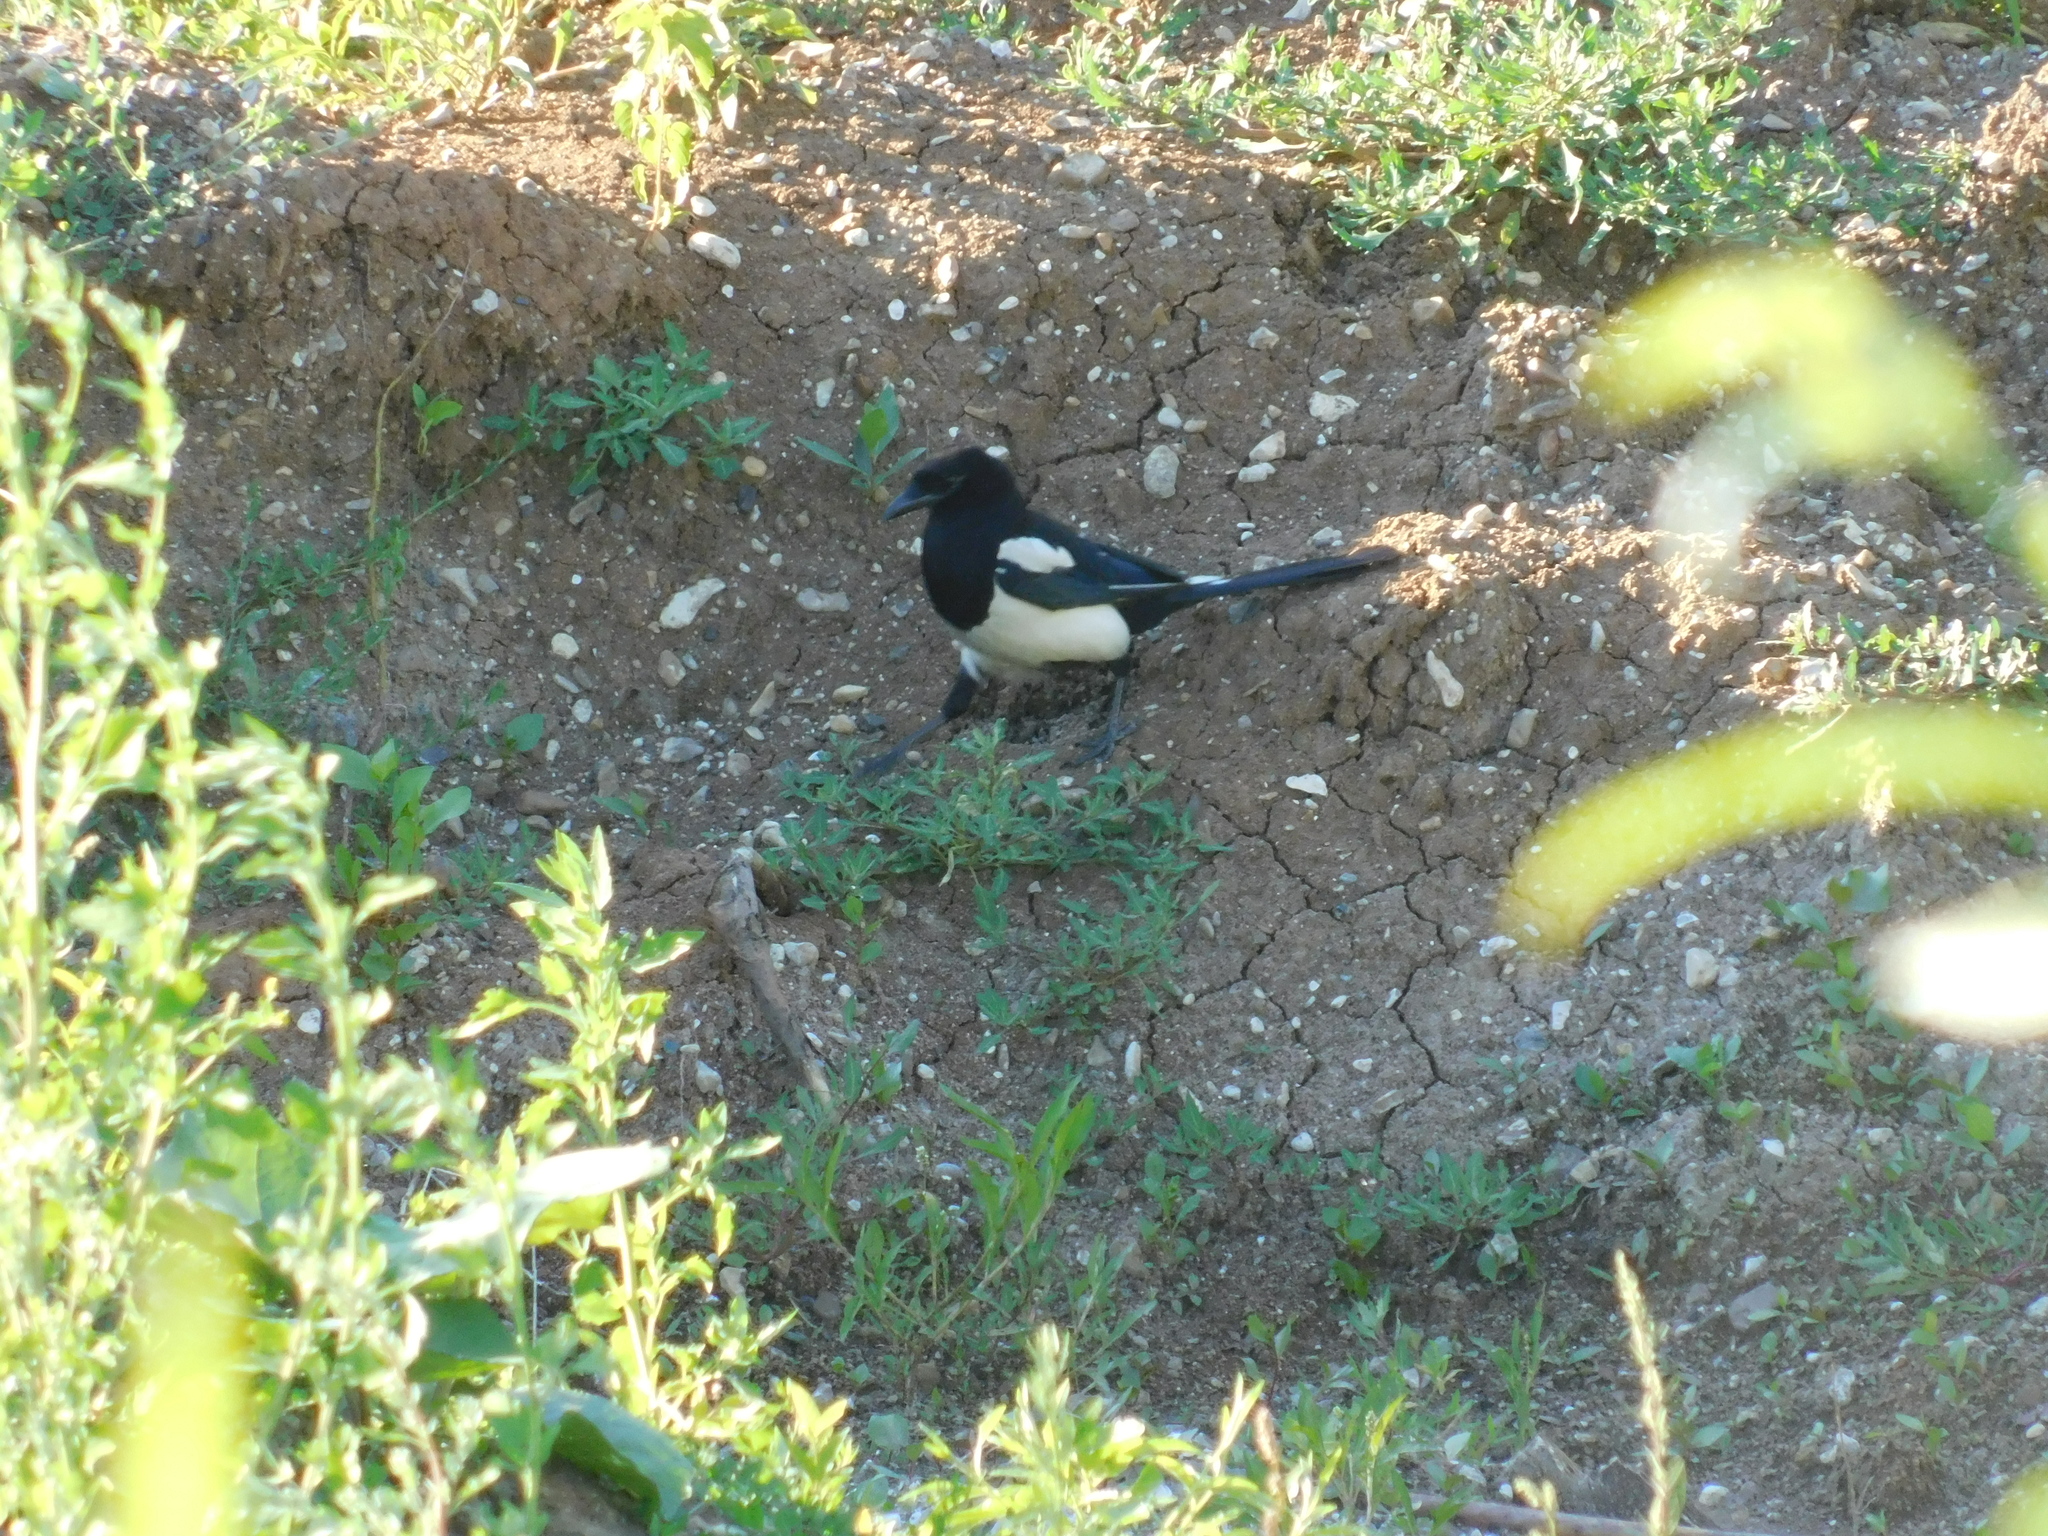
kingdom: Animalia
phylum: Chordata
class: Aves
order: Passeriformes
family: Corvidae
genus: Pica
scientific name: Pica pica
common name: Eurasian magpie
